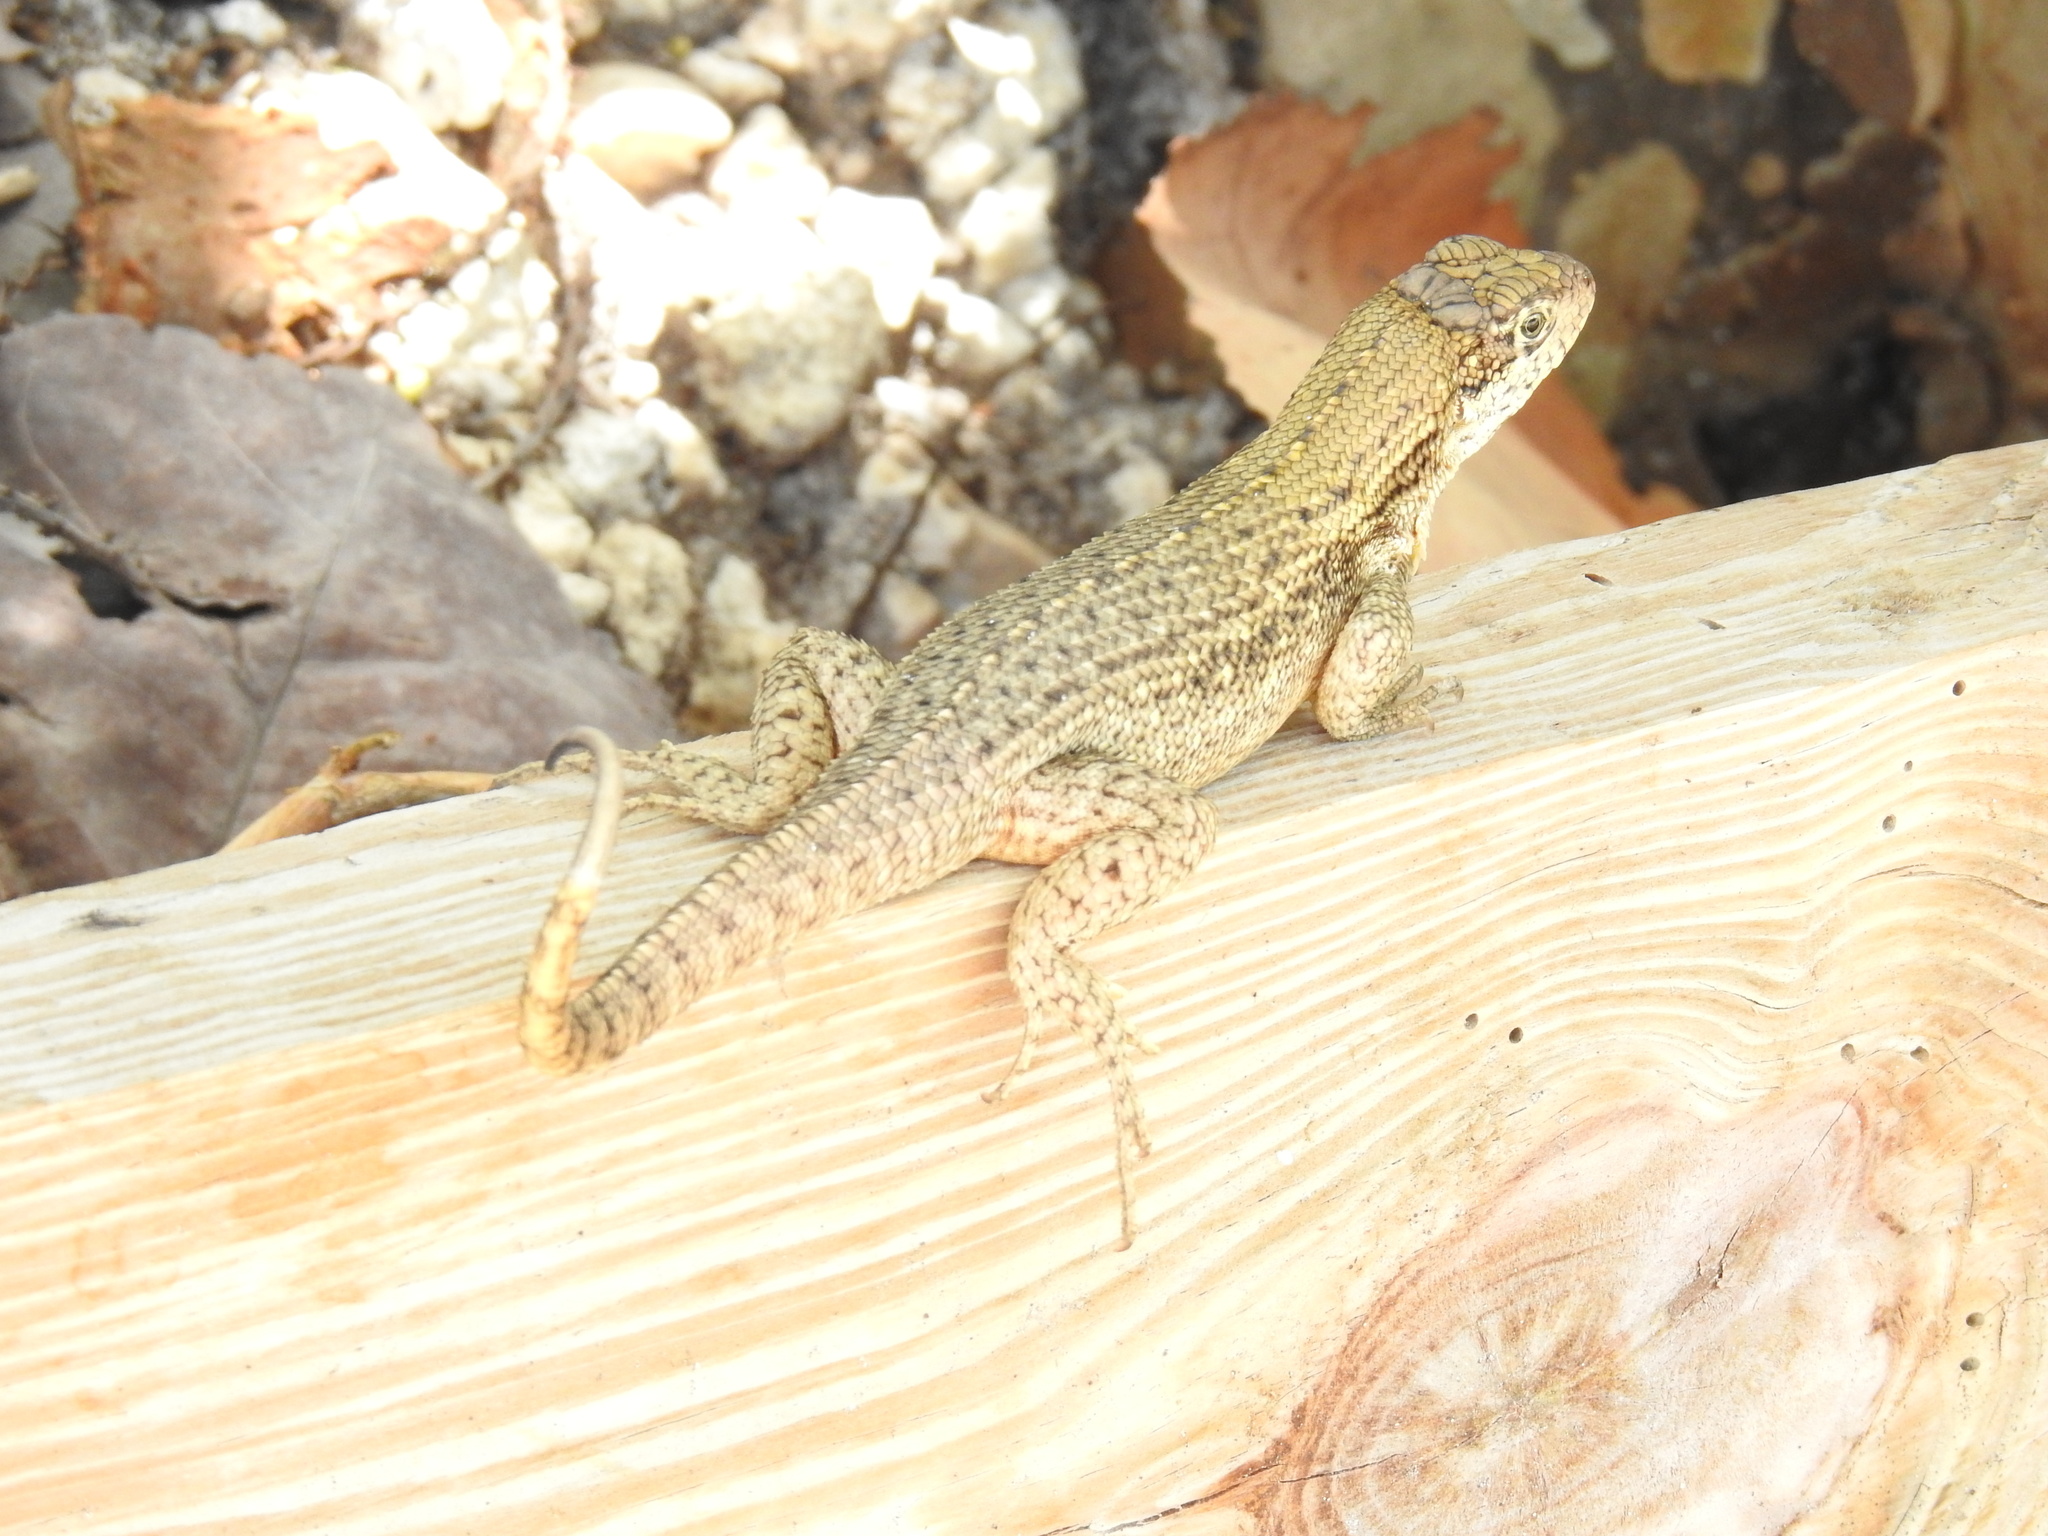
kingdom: Animalia
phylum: Chordata
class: Squamata
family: Leiocephalidae
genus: Leiocephalus
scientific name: Leiocephalus carinatus
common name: Northern curly-tailed lizard
